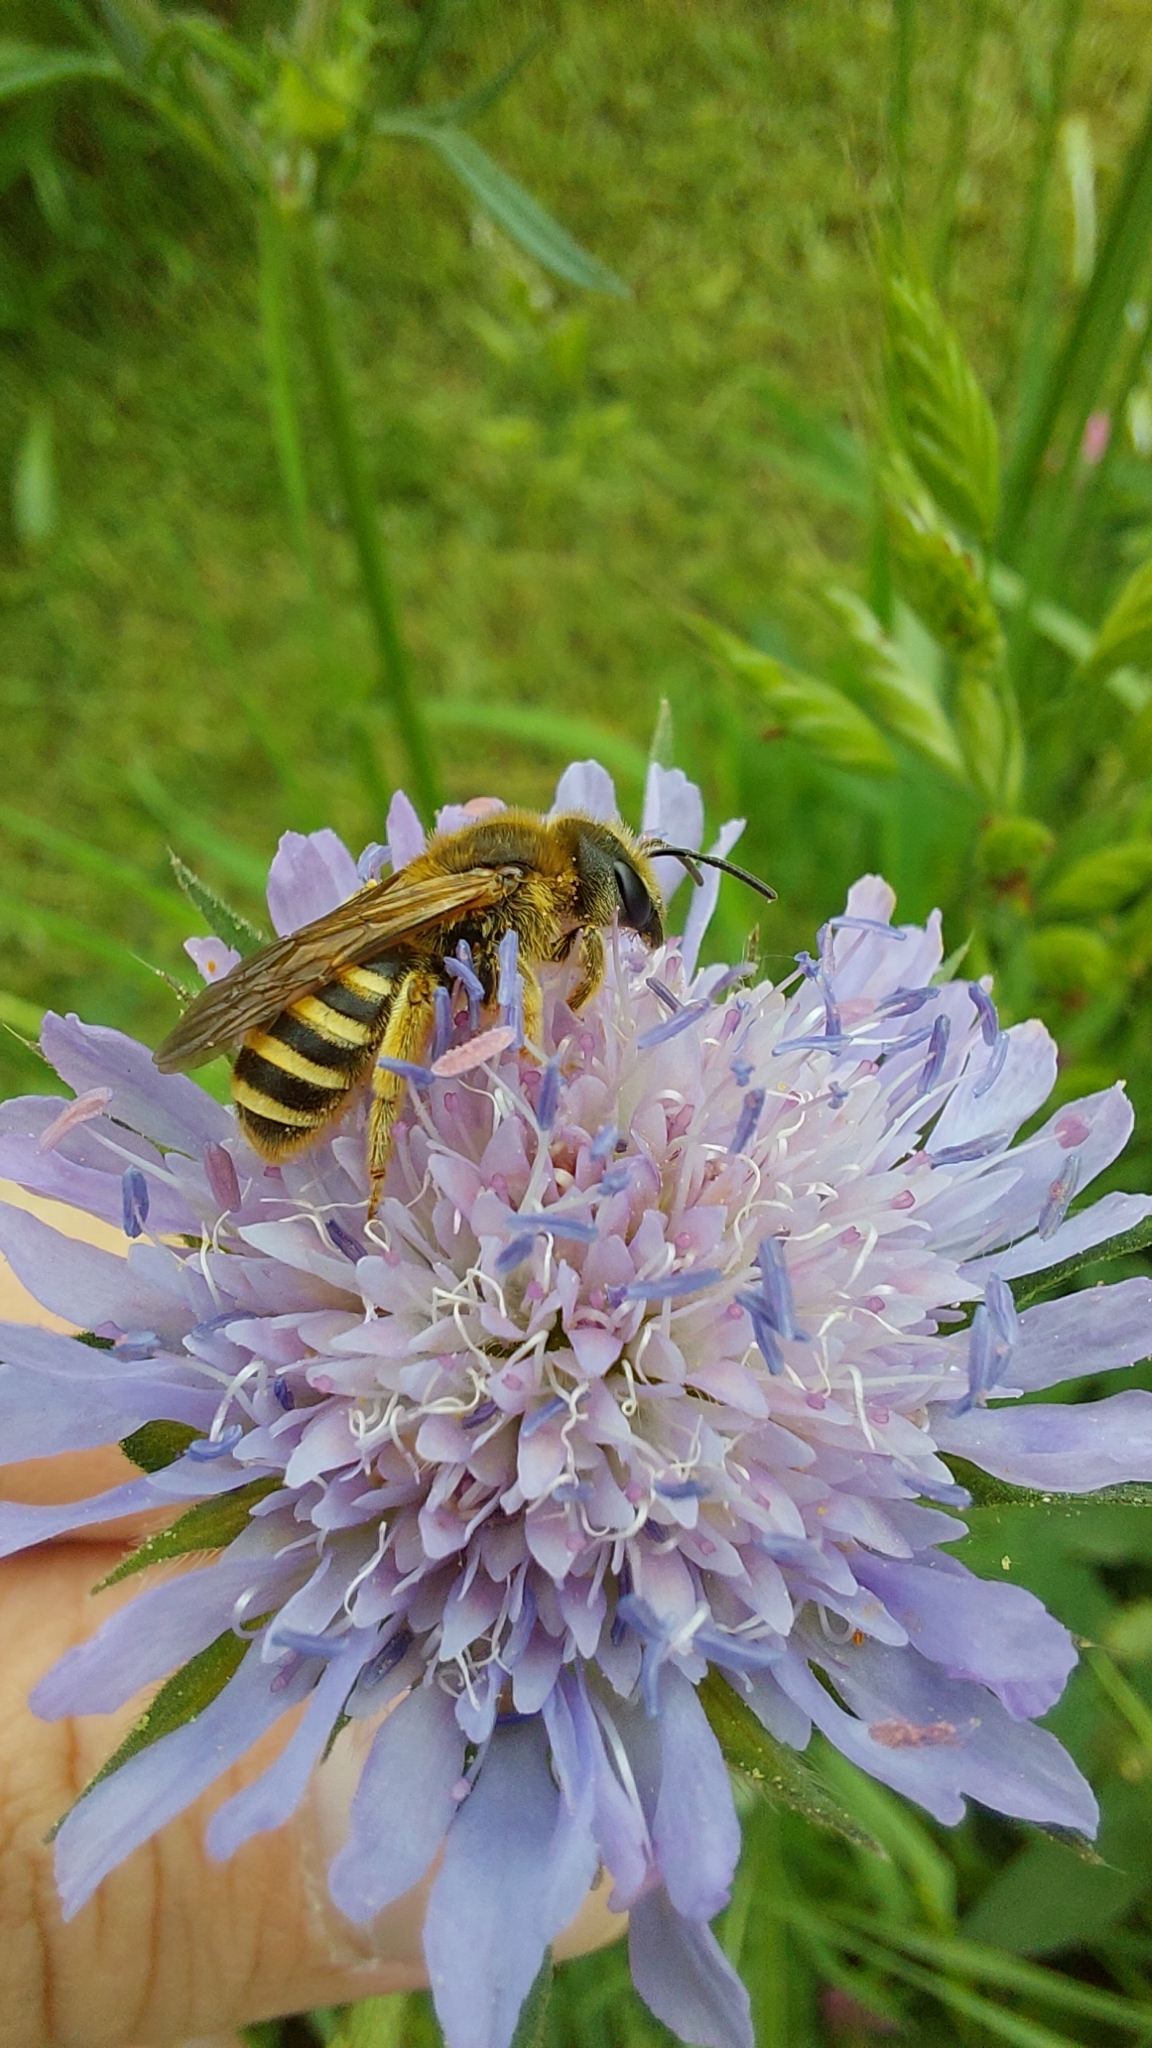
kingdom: Animalia
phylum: Arthropoda
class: Insecta
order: Hymenoptera
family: Halictidae
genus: Halictus
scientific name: Halictus scabiosae
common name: Great banded furrow bee
